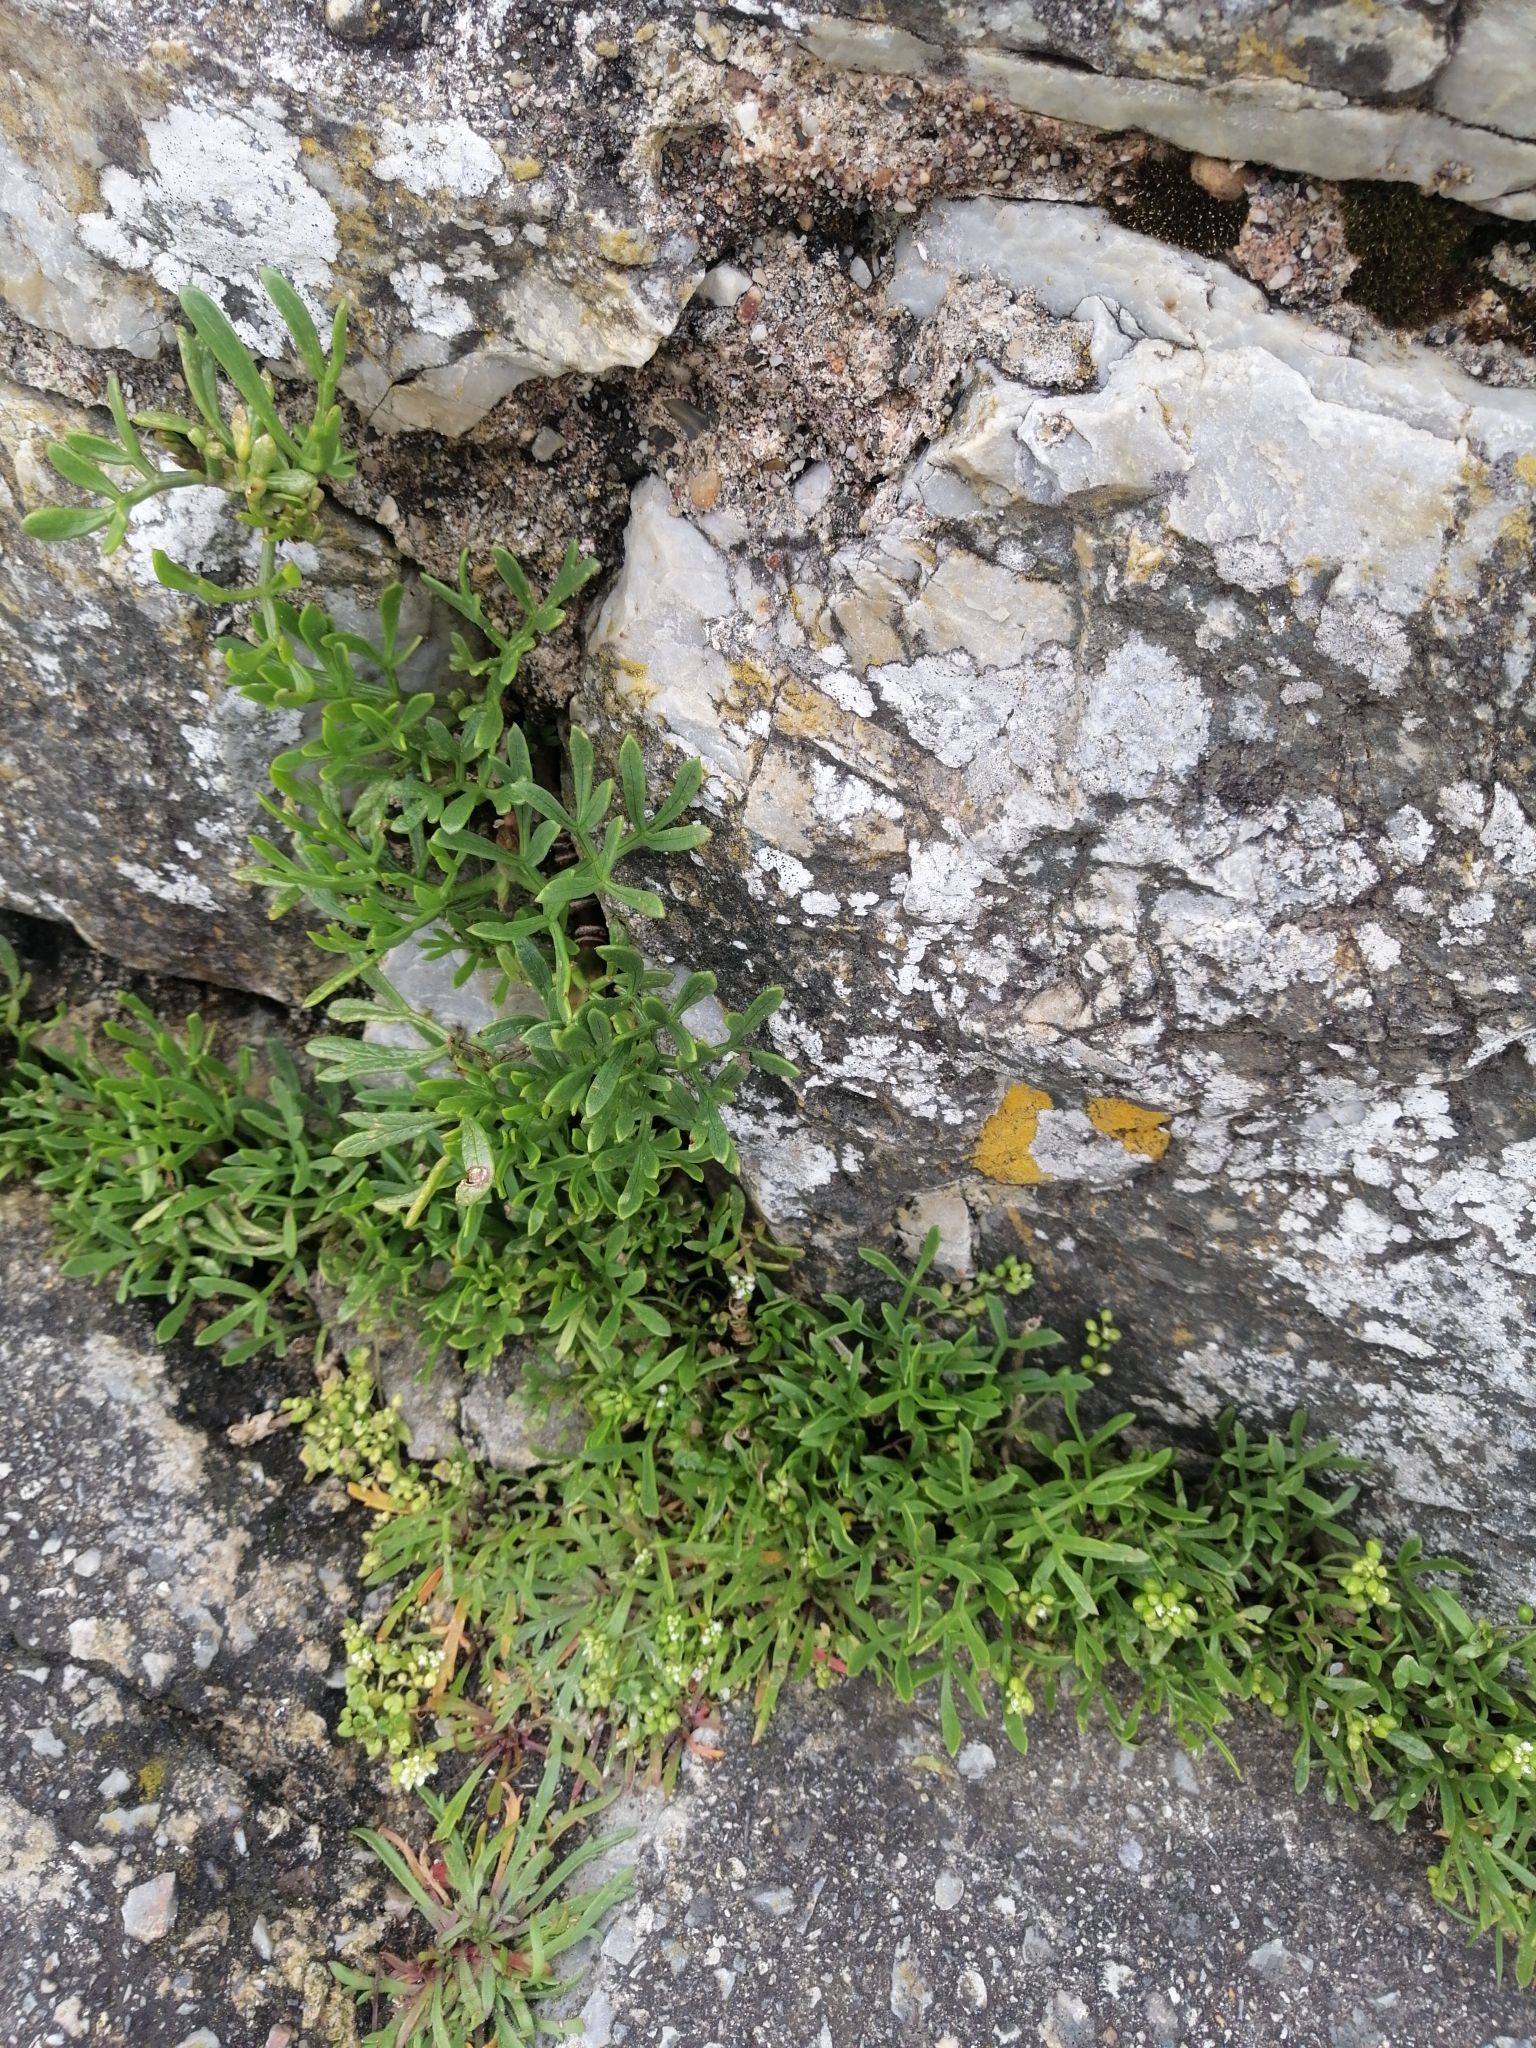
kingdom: Plantae
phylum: Tracheophyta
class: Magnoliopsida
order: Apiales
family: Apiaceae
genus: Crithmum
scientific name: Crithmum maritimum
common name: Rock samphire
